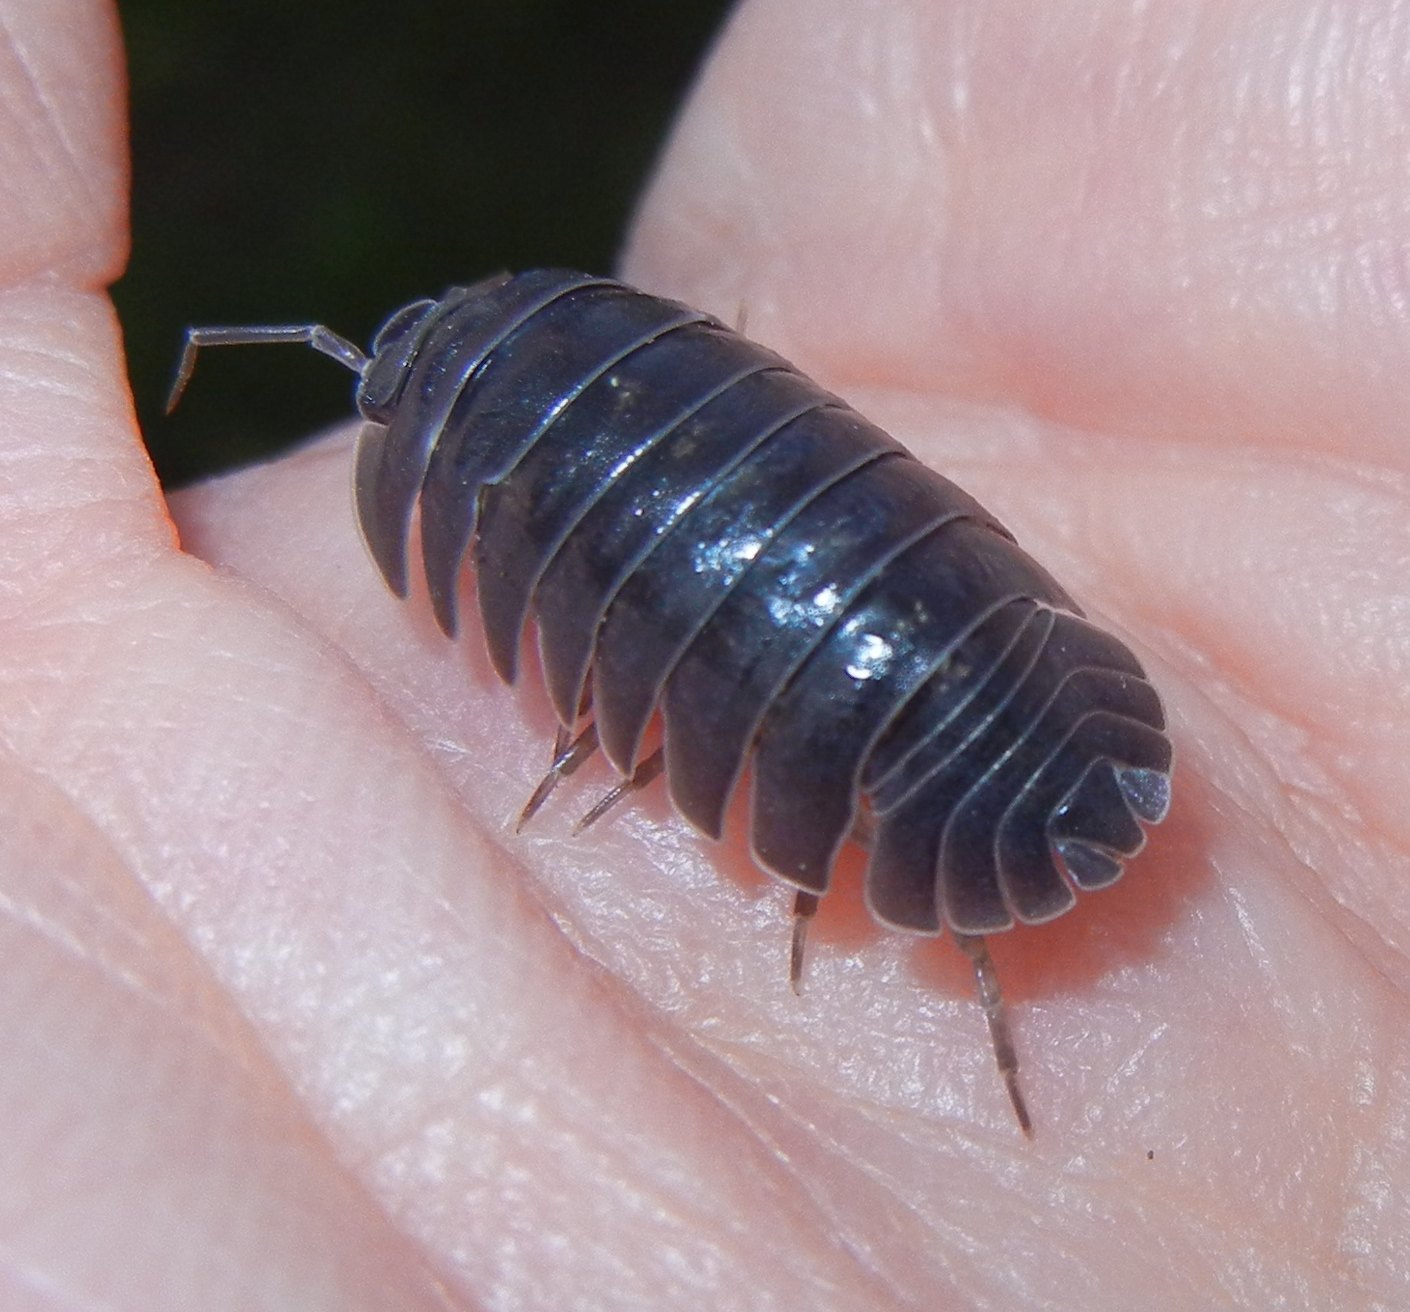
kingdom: Animalia
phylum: Arthropoda
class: Malacostraca
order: Isopoda
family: Armadillidiidae
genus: Armadillidium
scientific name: Armadillidium depressum
